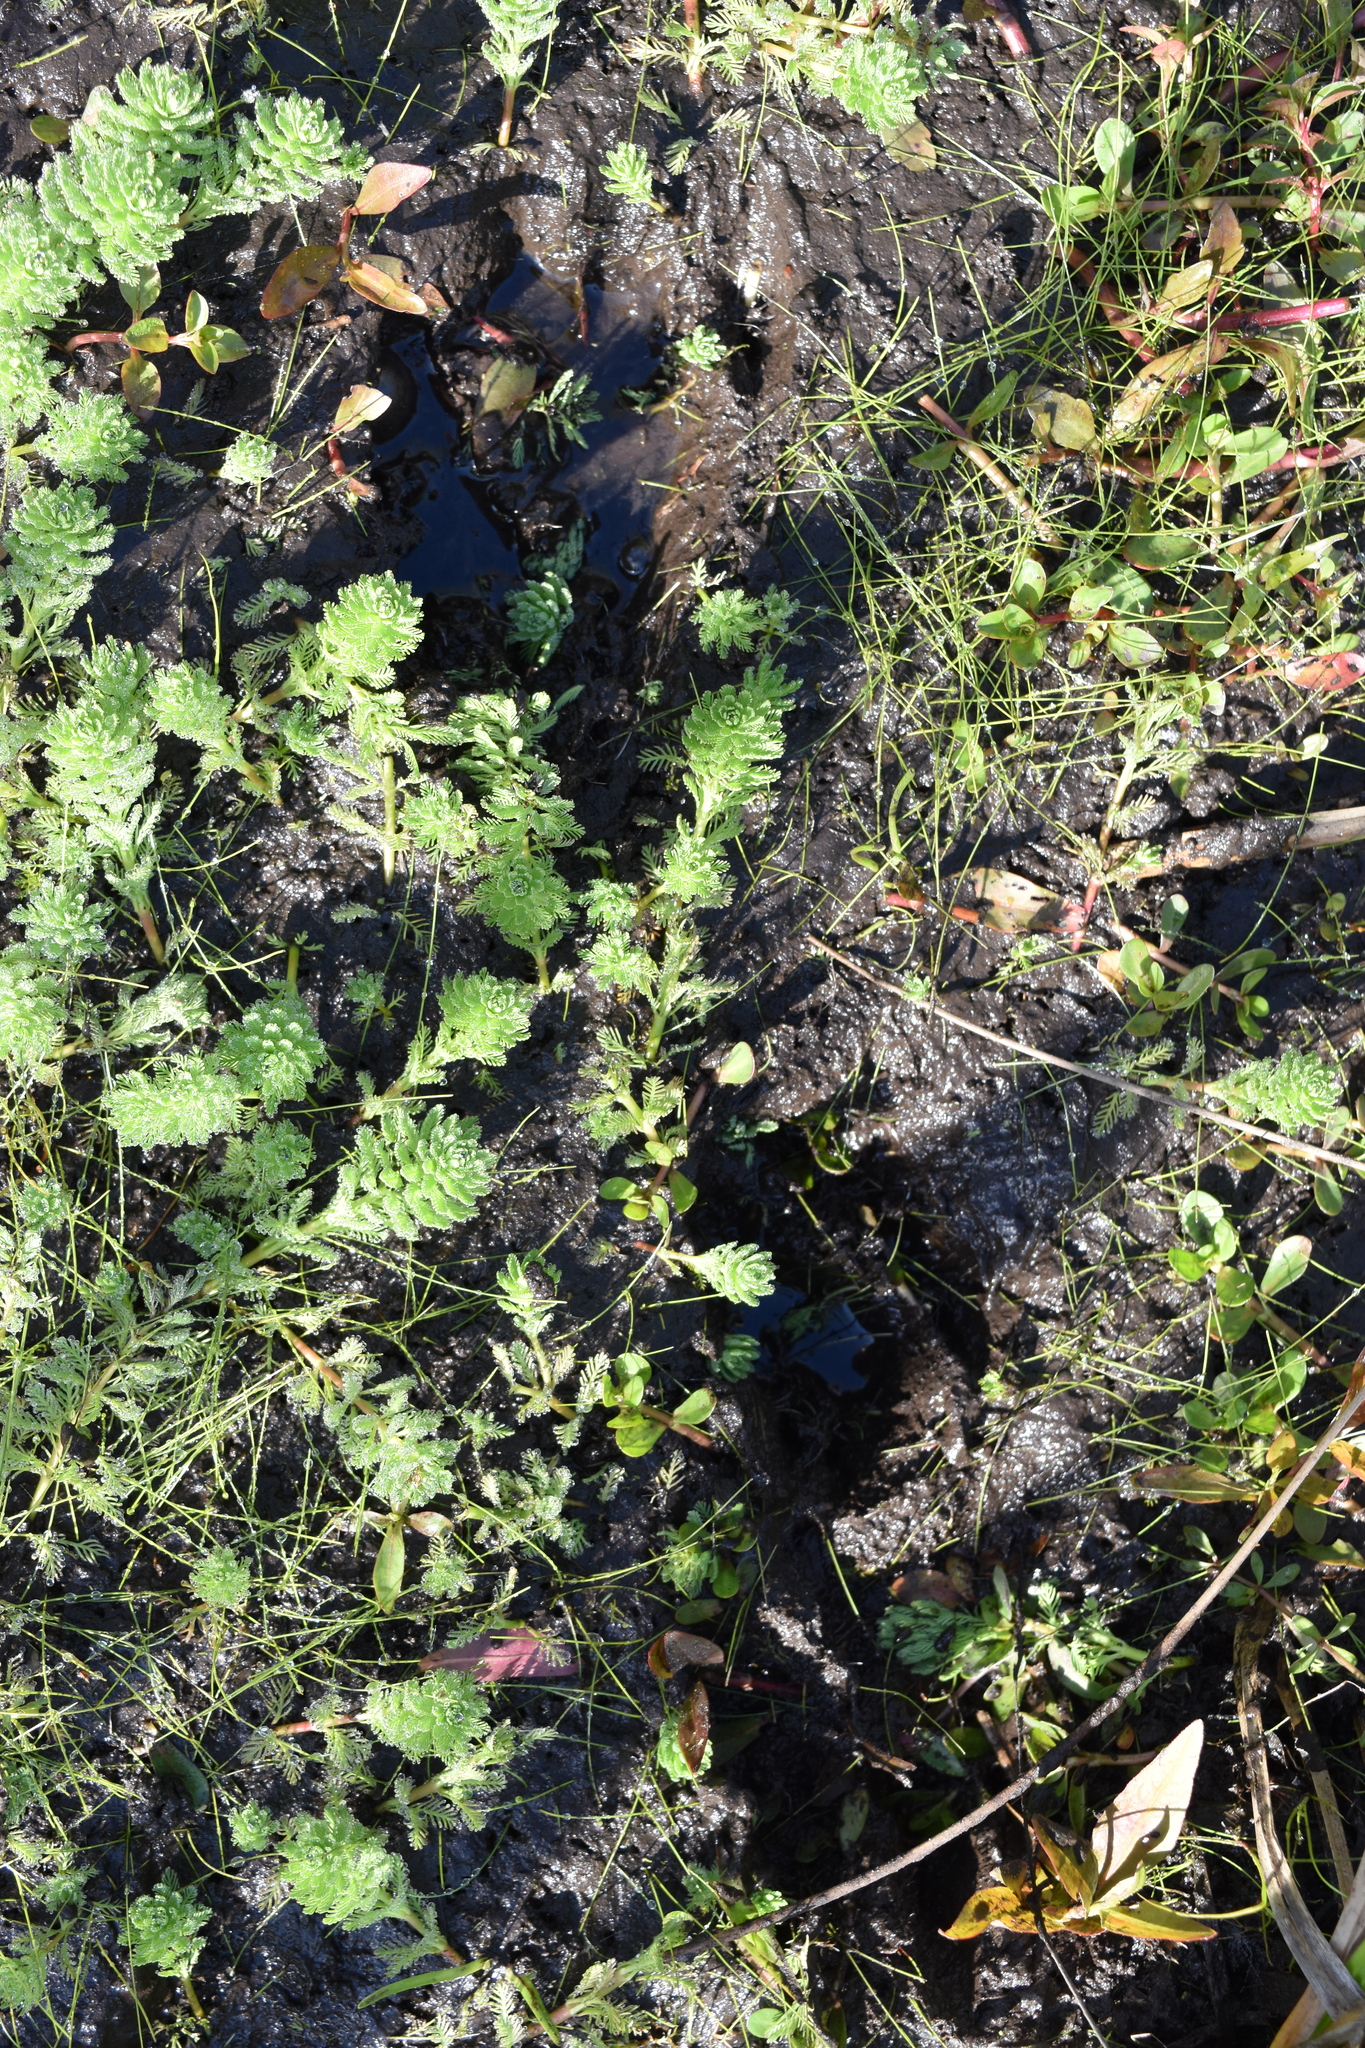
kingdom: Plantae
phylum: Tracheophyta
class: Magnoliopsida
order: Saxifragales
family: Haloragaceae
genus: Myriophyllum
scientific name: Myriophyllum aquaticum
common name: Parrot's feather
